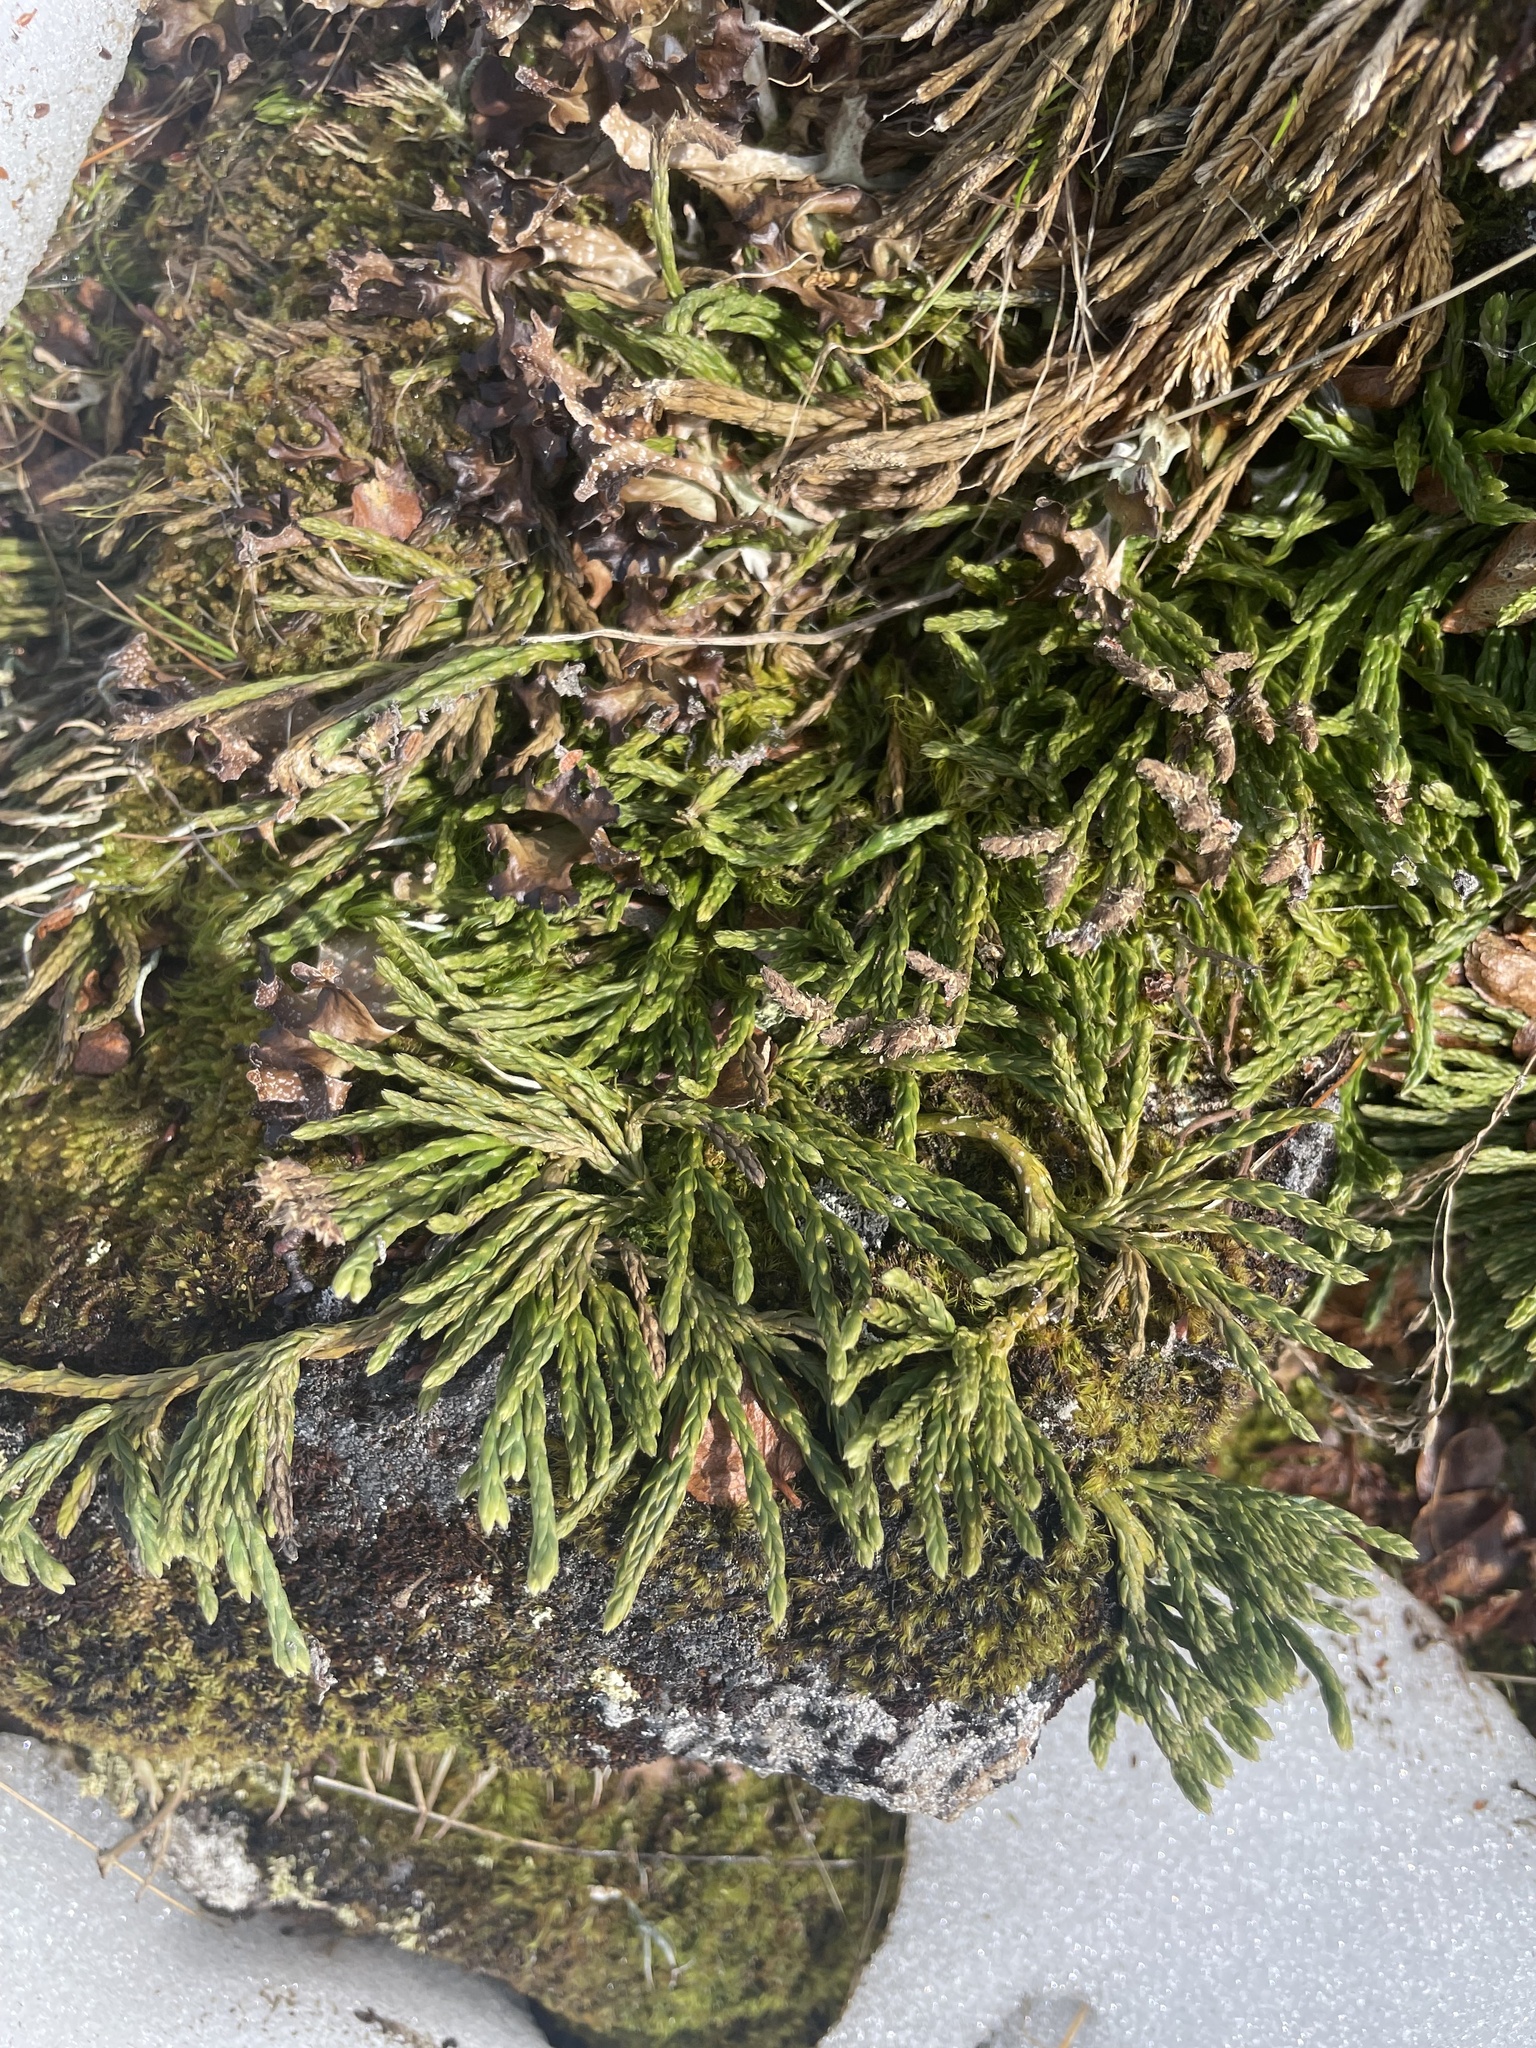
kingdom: Plantae
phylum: Tracheophyta
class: Lycopodiopsida
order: Lycopodiales
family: Lycopodiaceae
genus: Diphasiastrum
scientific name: Diphasiastrum alpinum
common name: Alpine clubmoss
